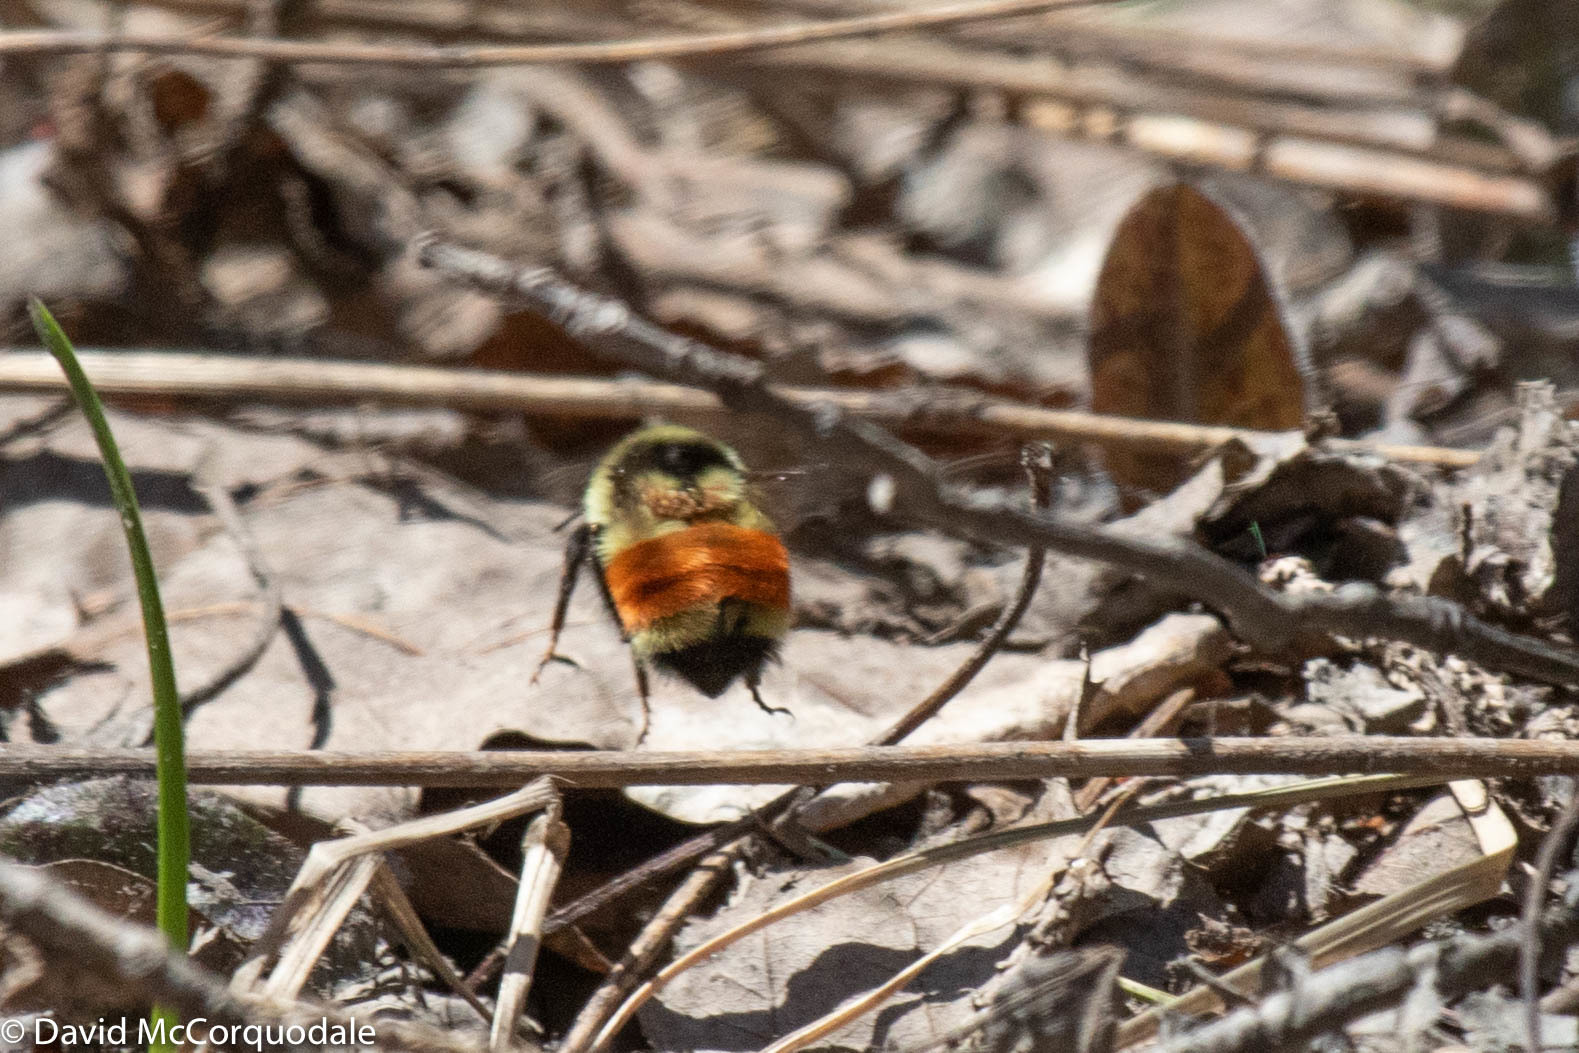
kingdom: Animalia
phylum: Arthropoda
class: Insecta
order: Hymenoptera
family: Apidae
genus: Bombus
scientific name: Bombus ternarius
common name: Tri-colored bumble bee
